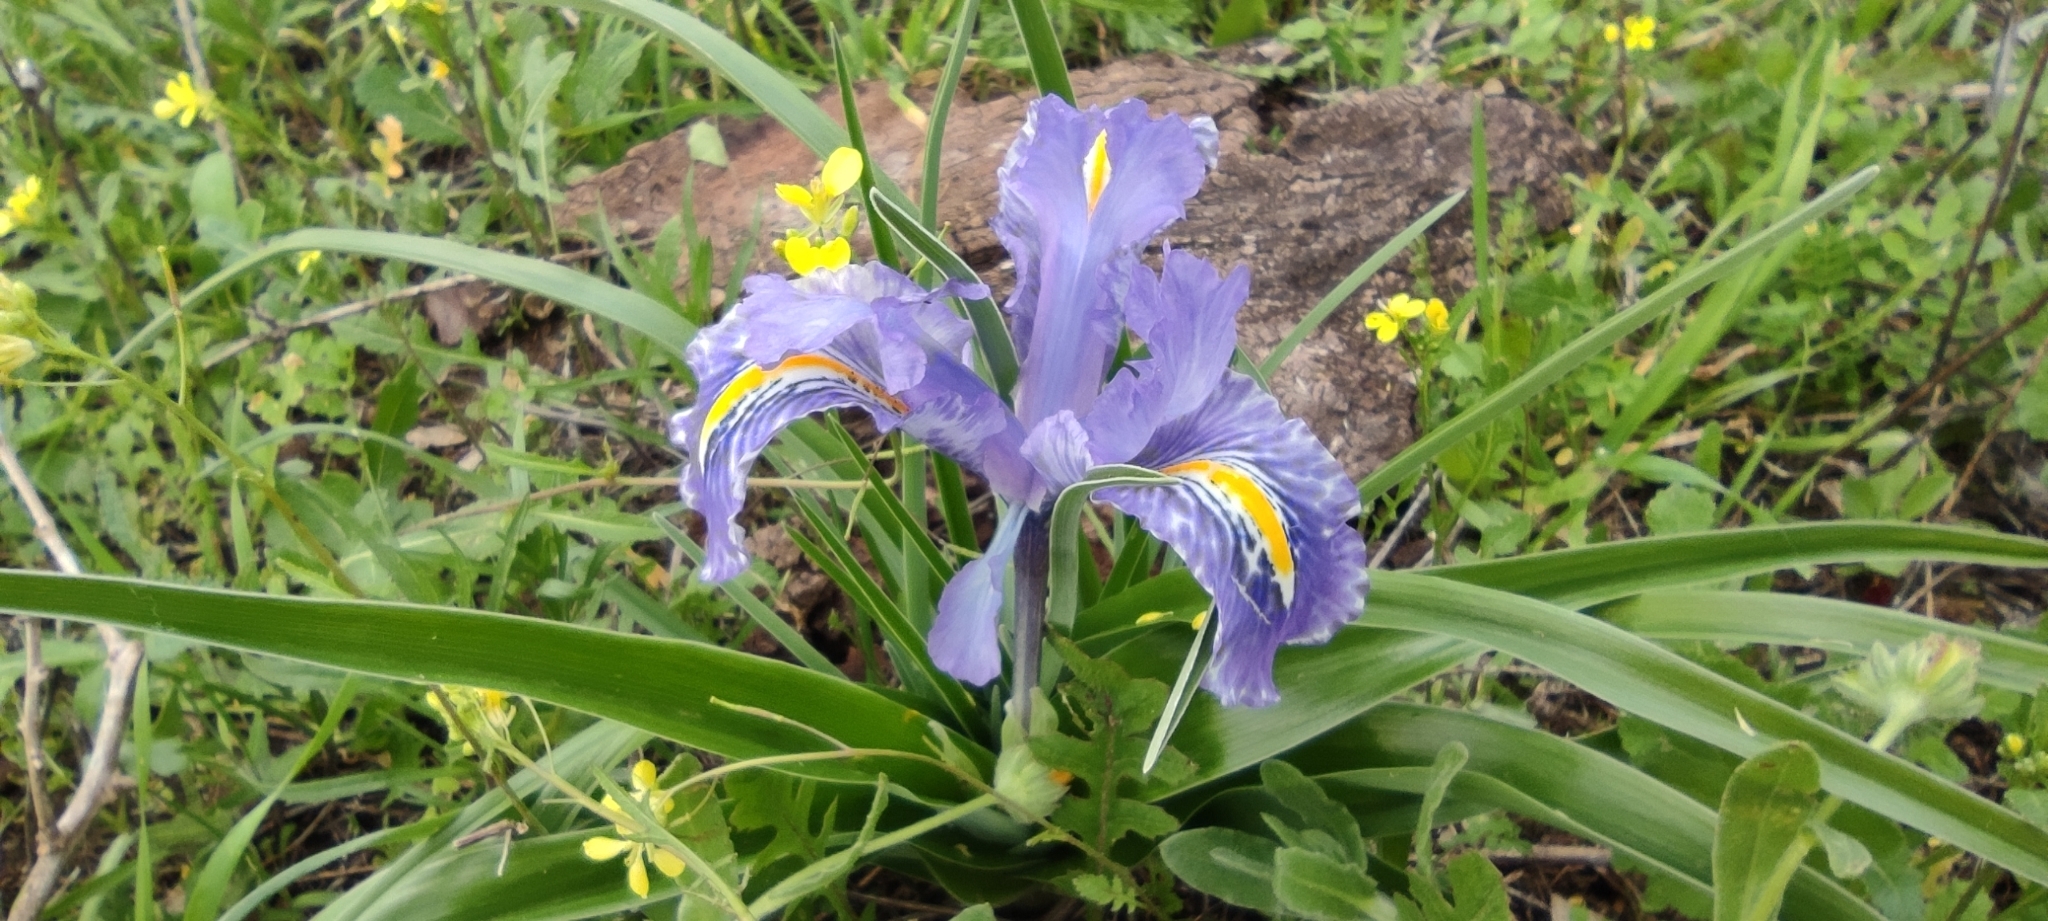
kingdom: Plantae
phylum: Tracheophyta
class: Liliopsida
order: Asparagales
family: Iridaceae
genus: Iris
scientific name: Iris planifolia
